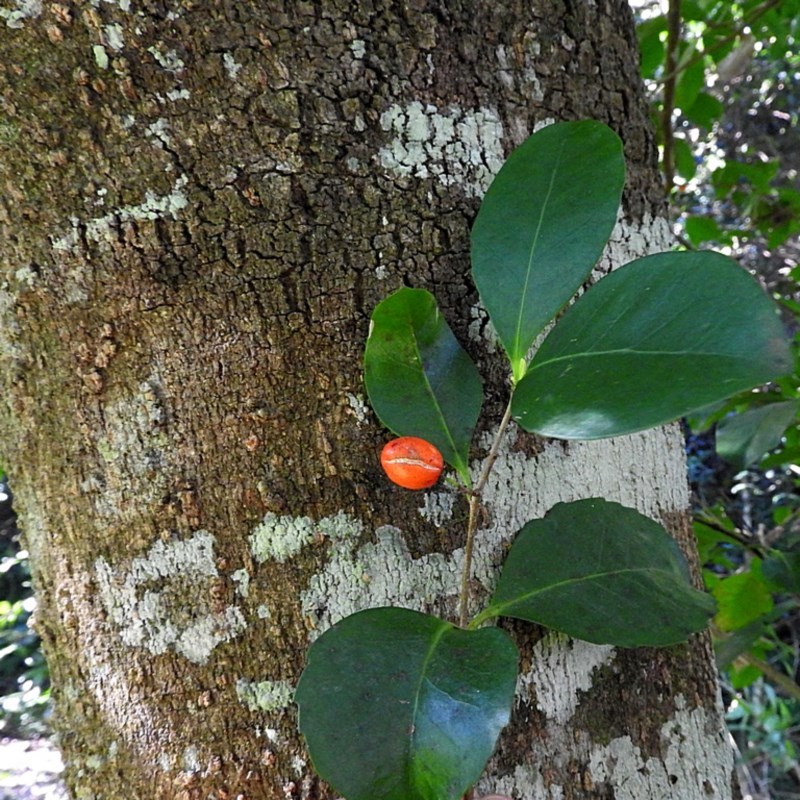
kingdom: Plantae
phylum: Tracheophyta
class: Magnoliopsida
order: Celastrales
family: Celastraceae
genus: Elaeodendron
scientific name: Elaeodendron australe
